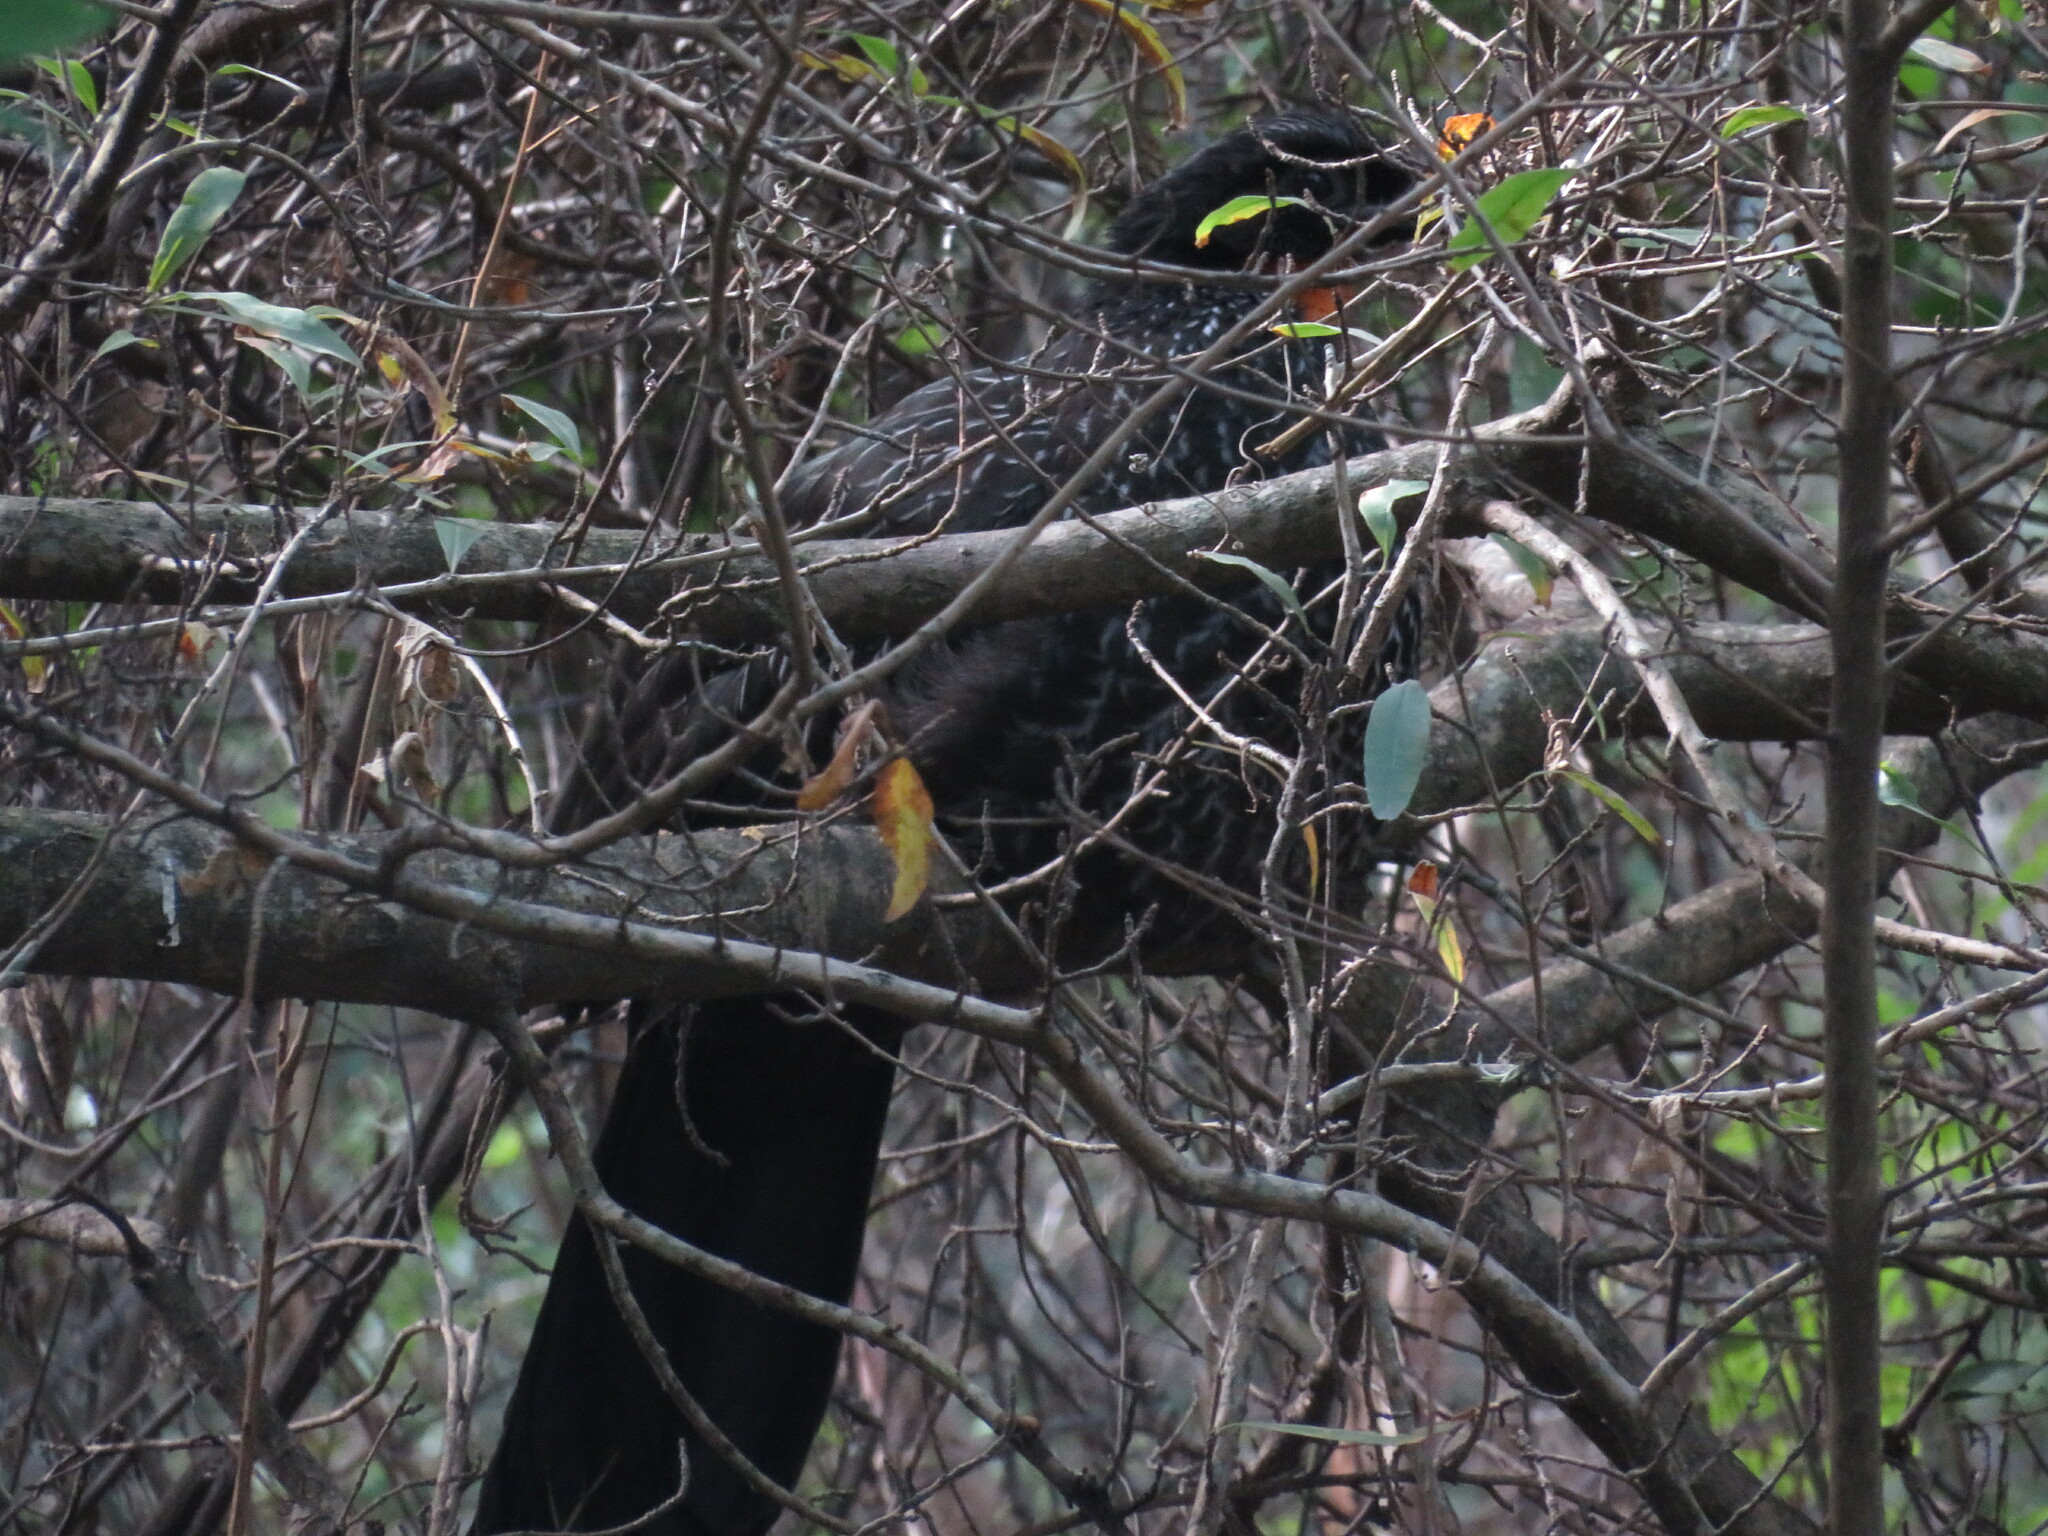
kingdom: Animalia
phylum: Chordata
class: Aves
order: Galliformes
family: Cracidae
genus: Penelope
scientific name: Penelope obscura
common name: Dusky-legged guan
